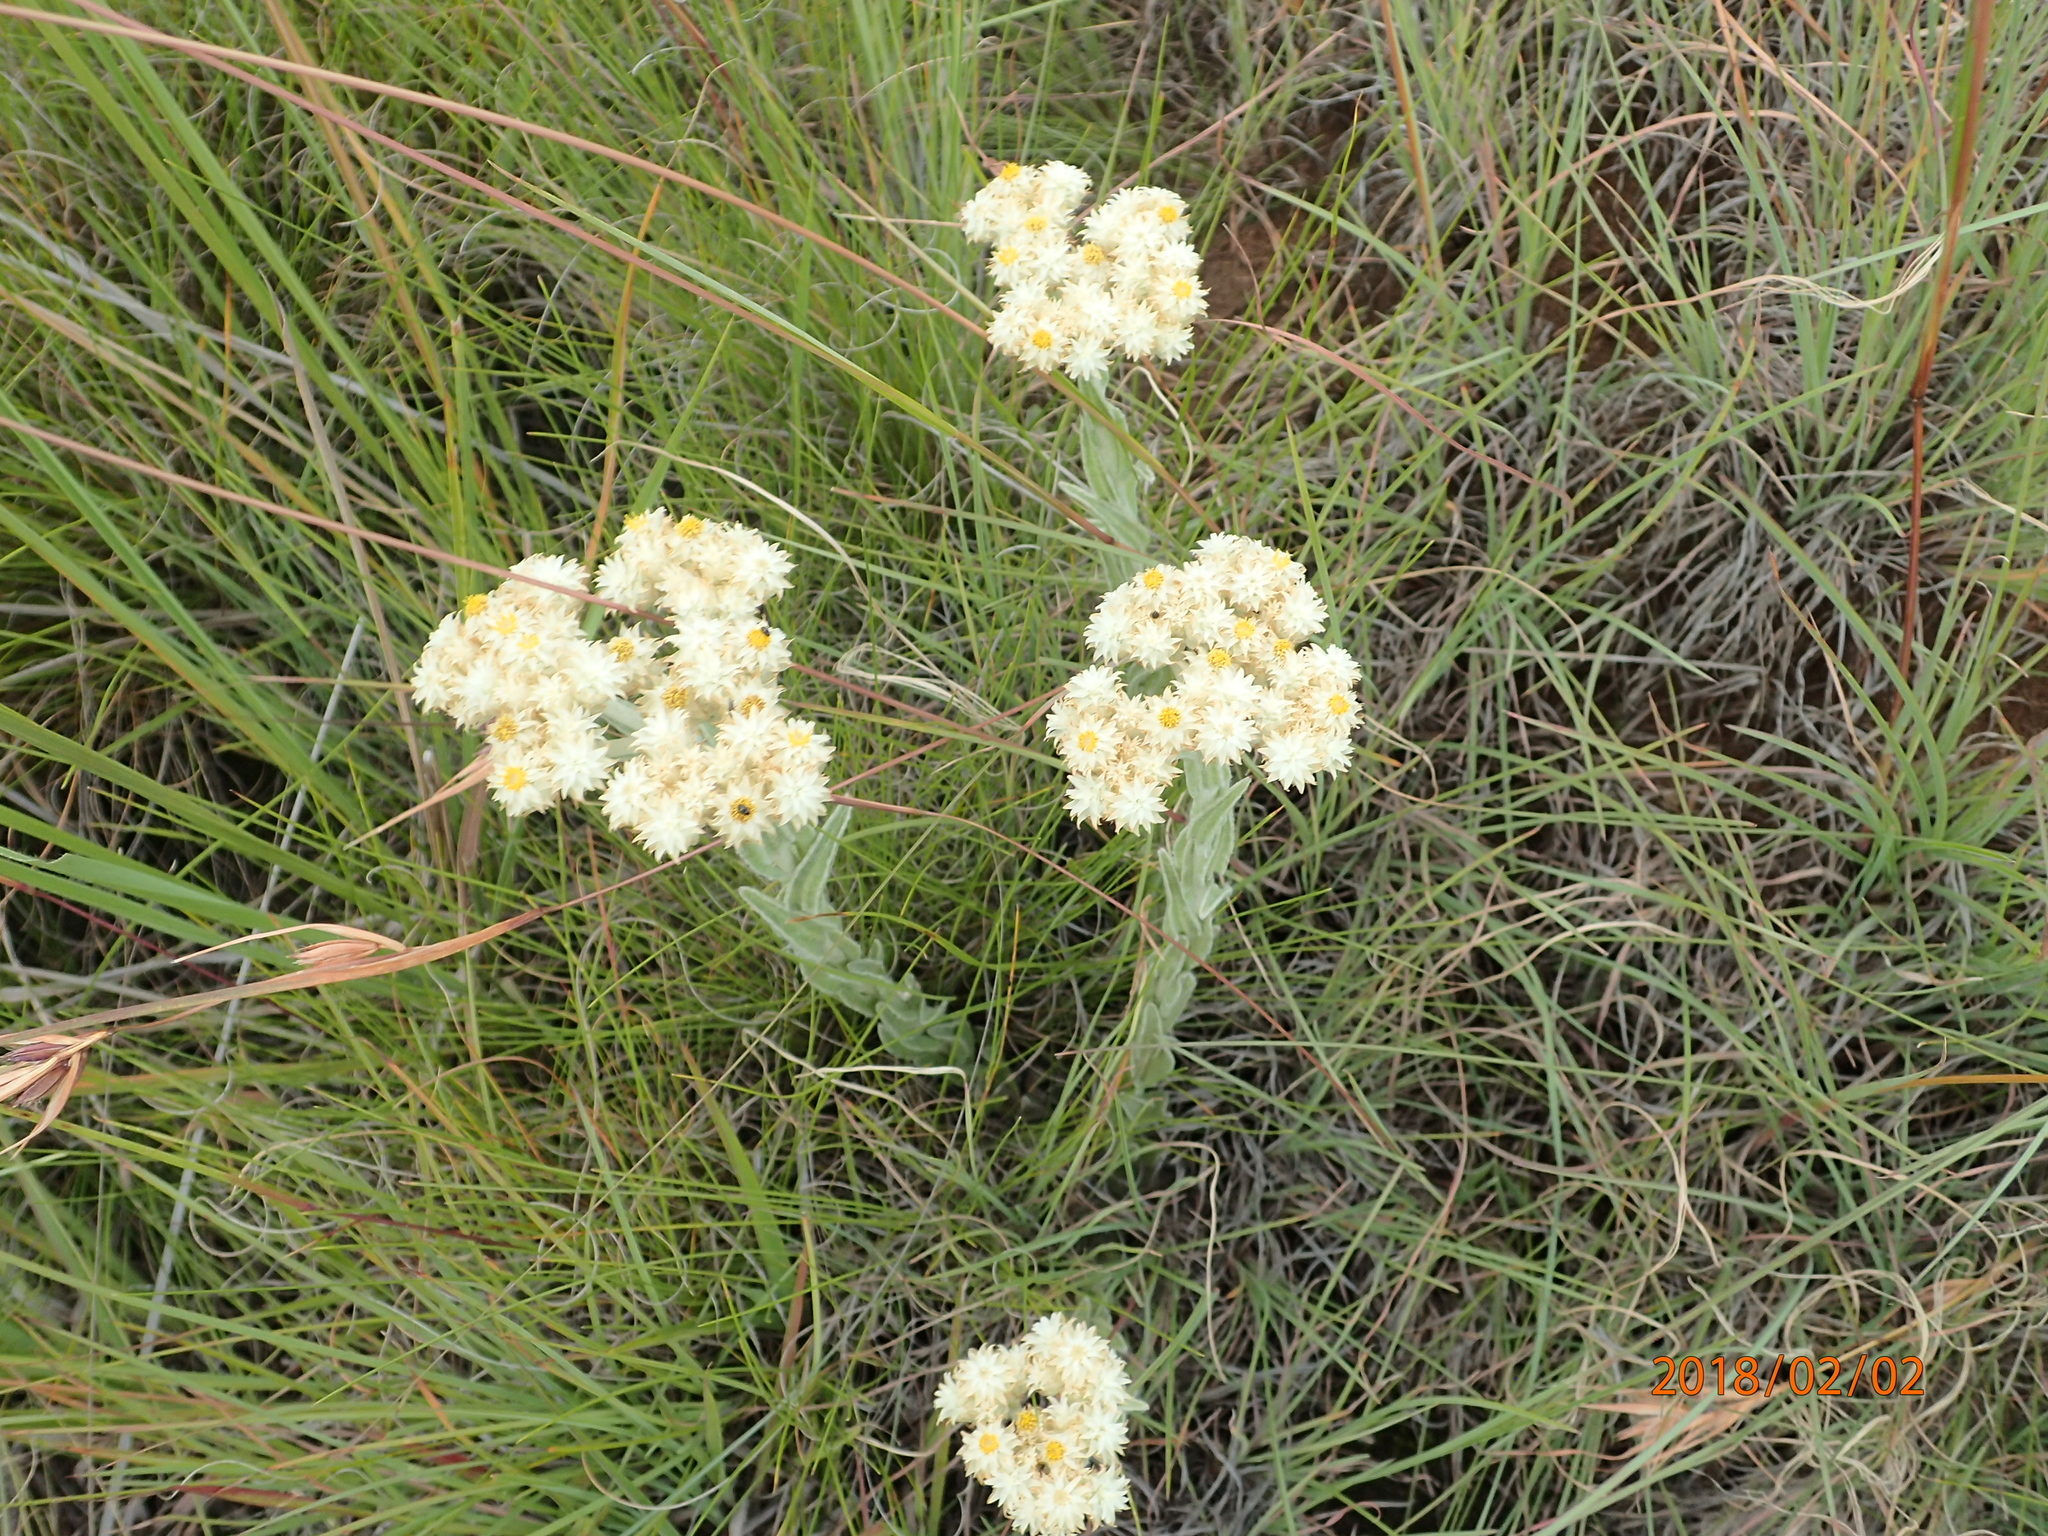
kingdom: Plantae
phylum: Tracheophyta
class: Magnoliopsida
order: Asterales
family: Asteraceae
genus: Helichrysum
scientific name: Helichrysum appendiculatum
